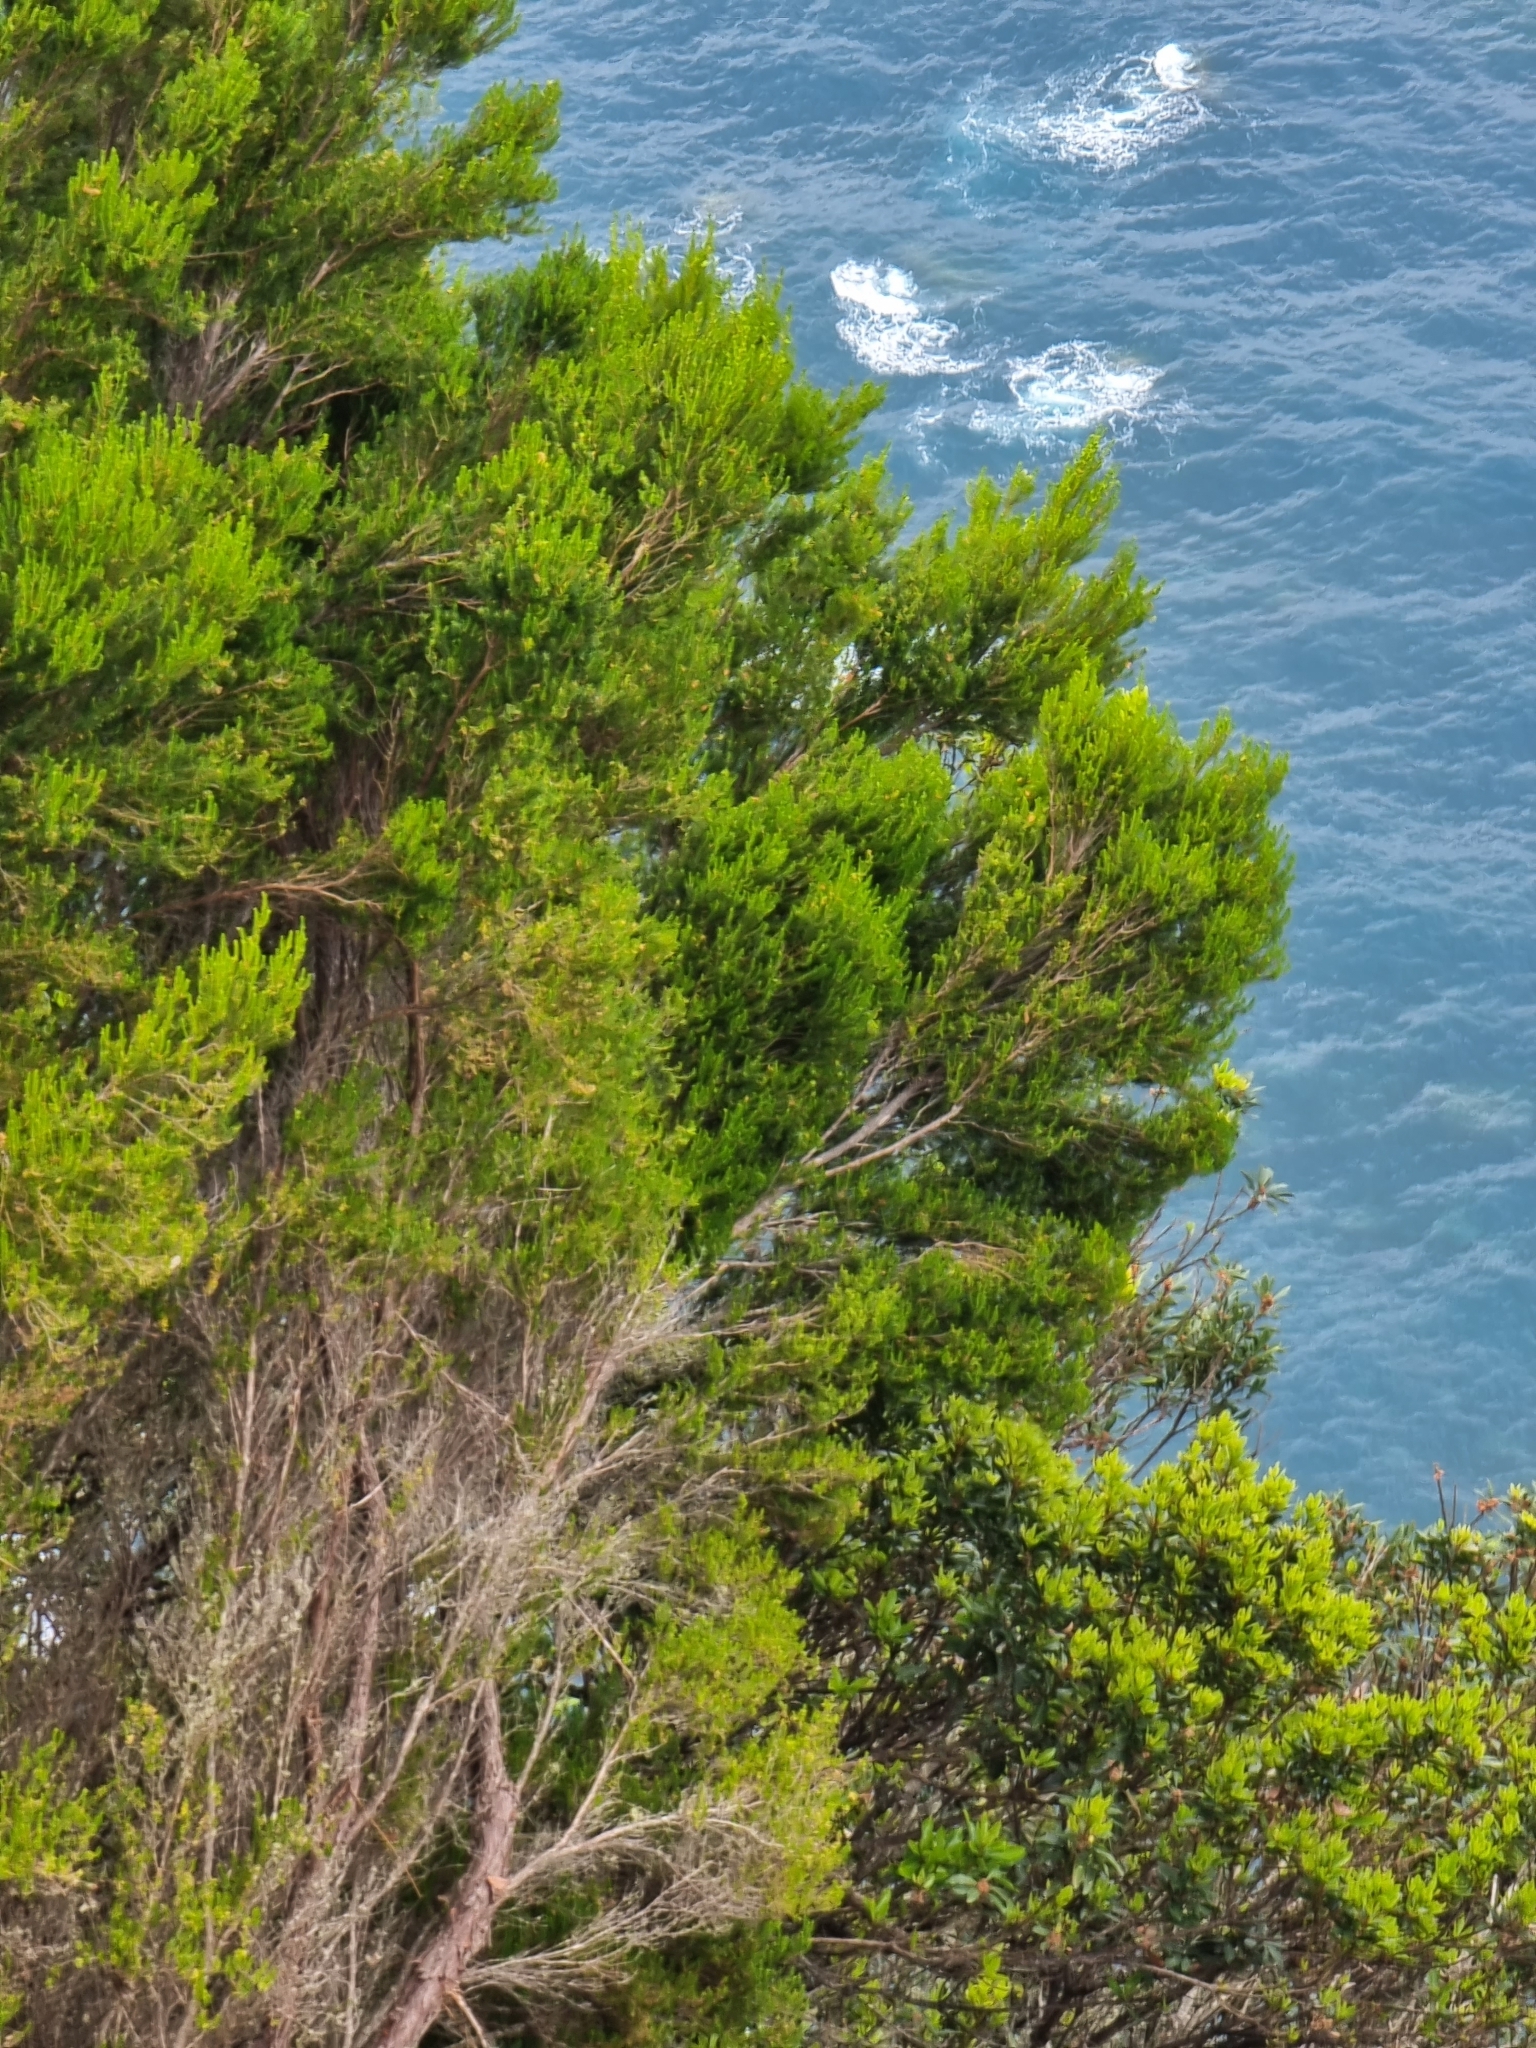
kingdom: Plantae
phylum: Tracheophyta
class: Magnoliopsida
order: Ericales
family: Ericaceae
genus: Erica
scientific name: Erica platycodon
